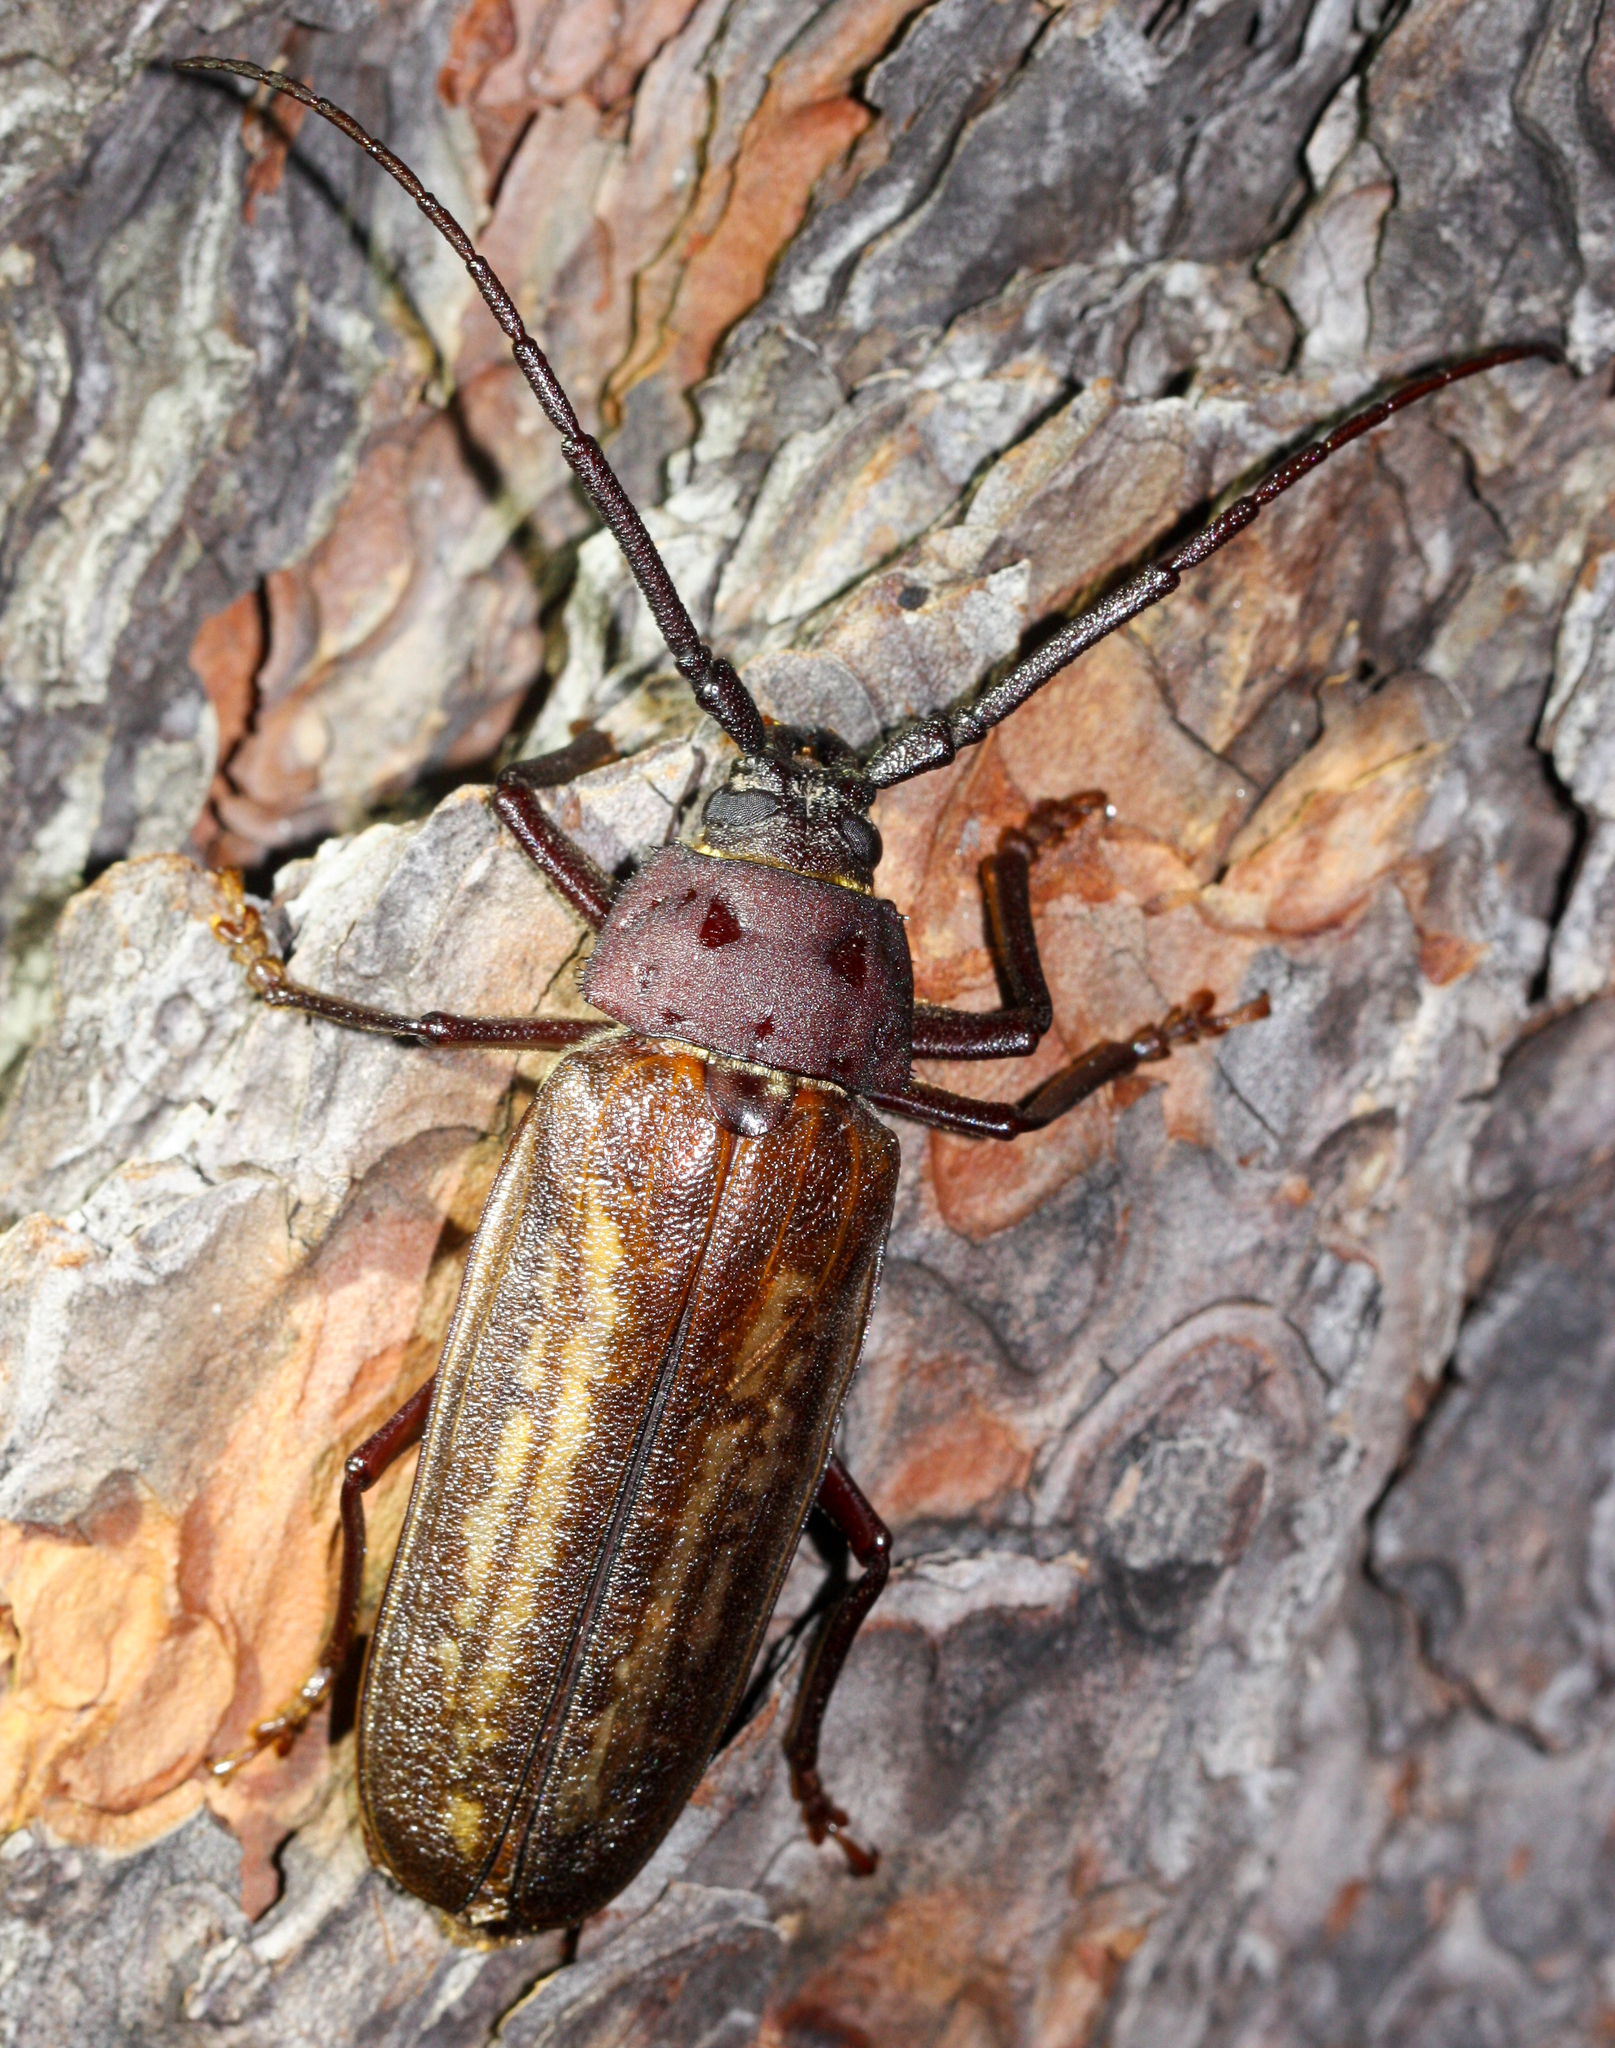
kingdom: Animalia
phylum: Arthropoda
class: Insecta
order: Coleoptera
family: Cerambycidae
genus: Trichocnemis
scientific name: Trichocnemis spiculatus
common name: Long-horned beetle
